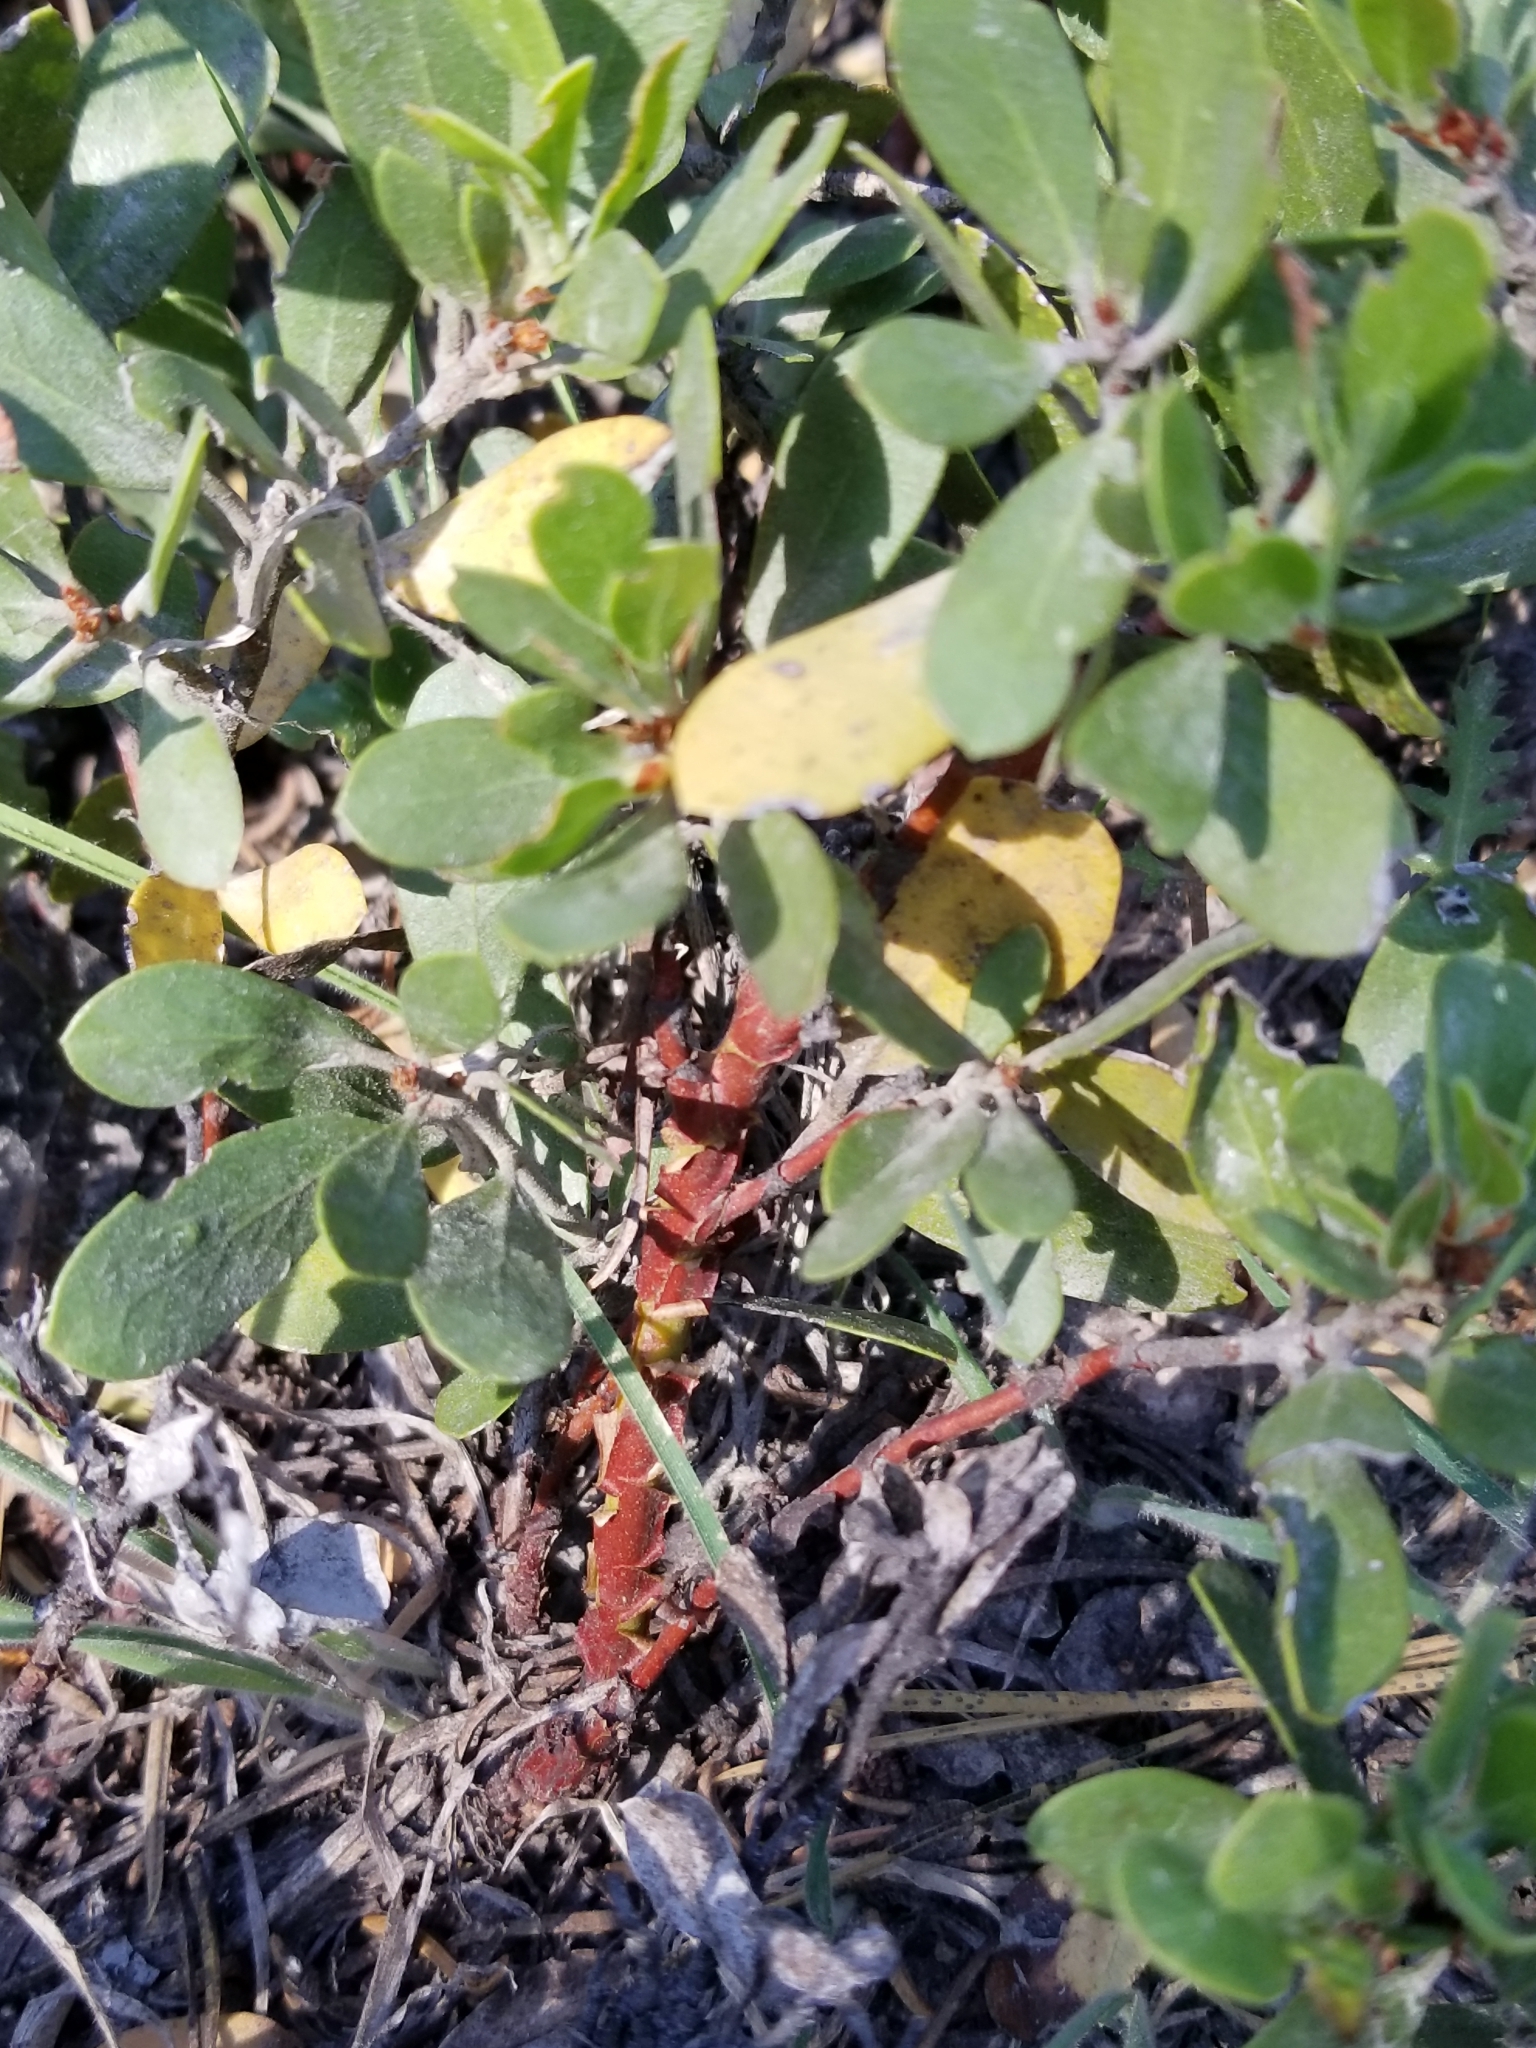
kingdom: Plantae
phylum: Tracheophyta
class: Magnoliopsida
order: Ericales
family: Ericaceae
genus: Arctostaphylos
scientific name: Arctostaphylos nevadensis
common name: Pinemat manzanita
